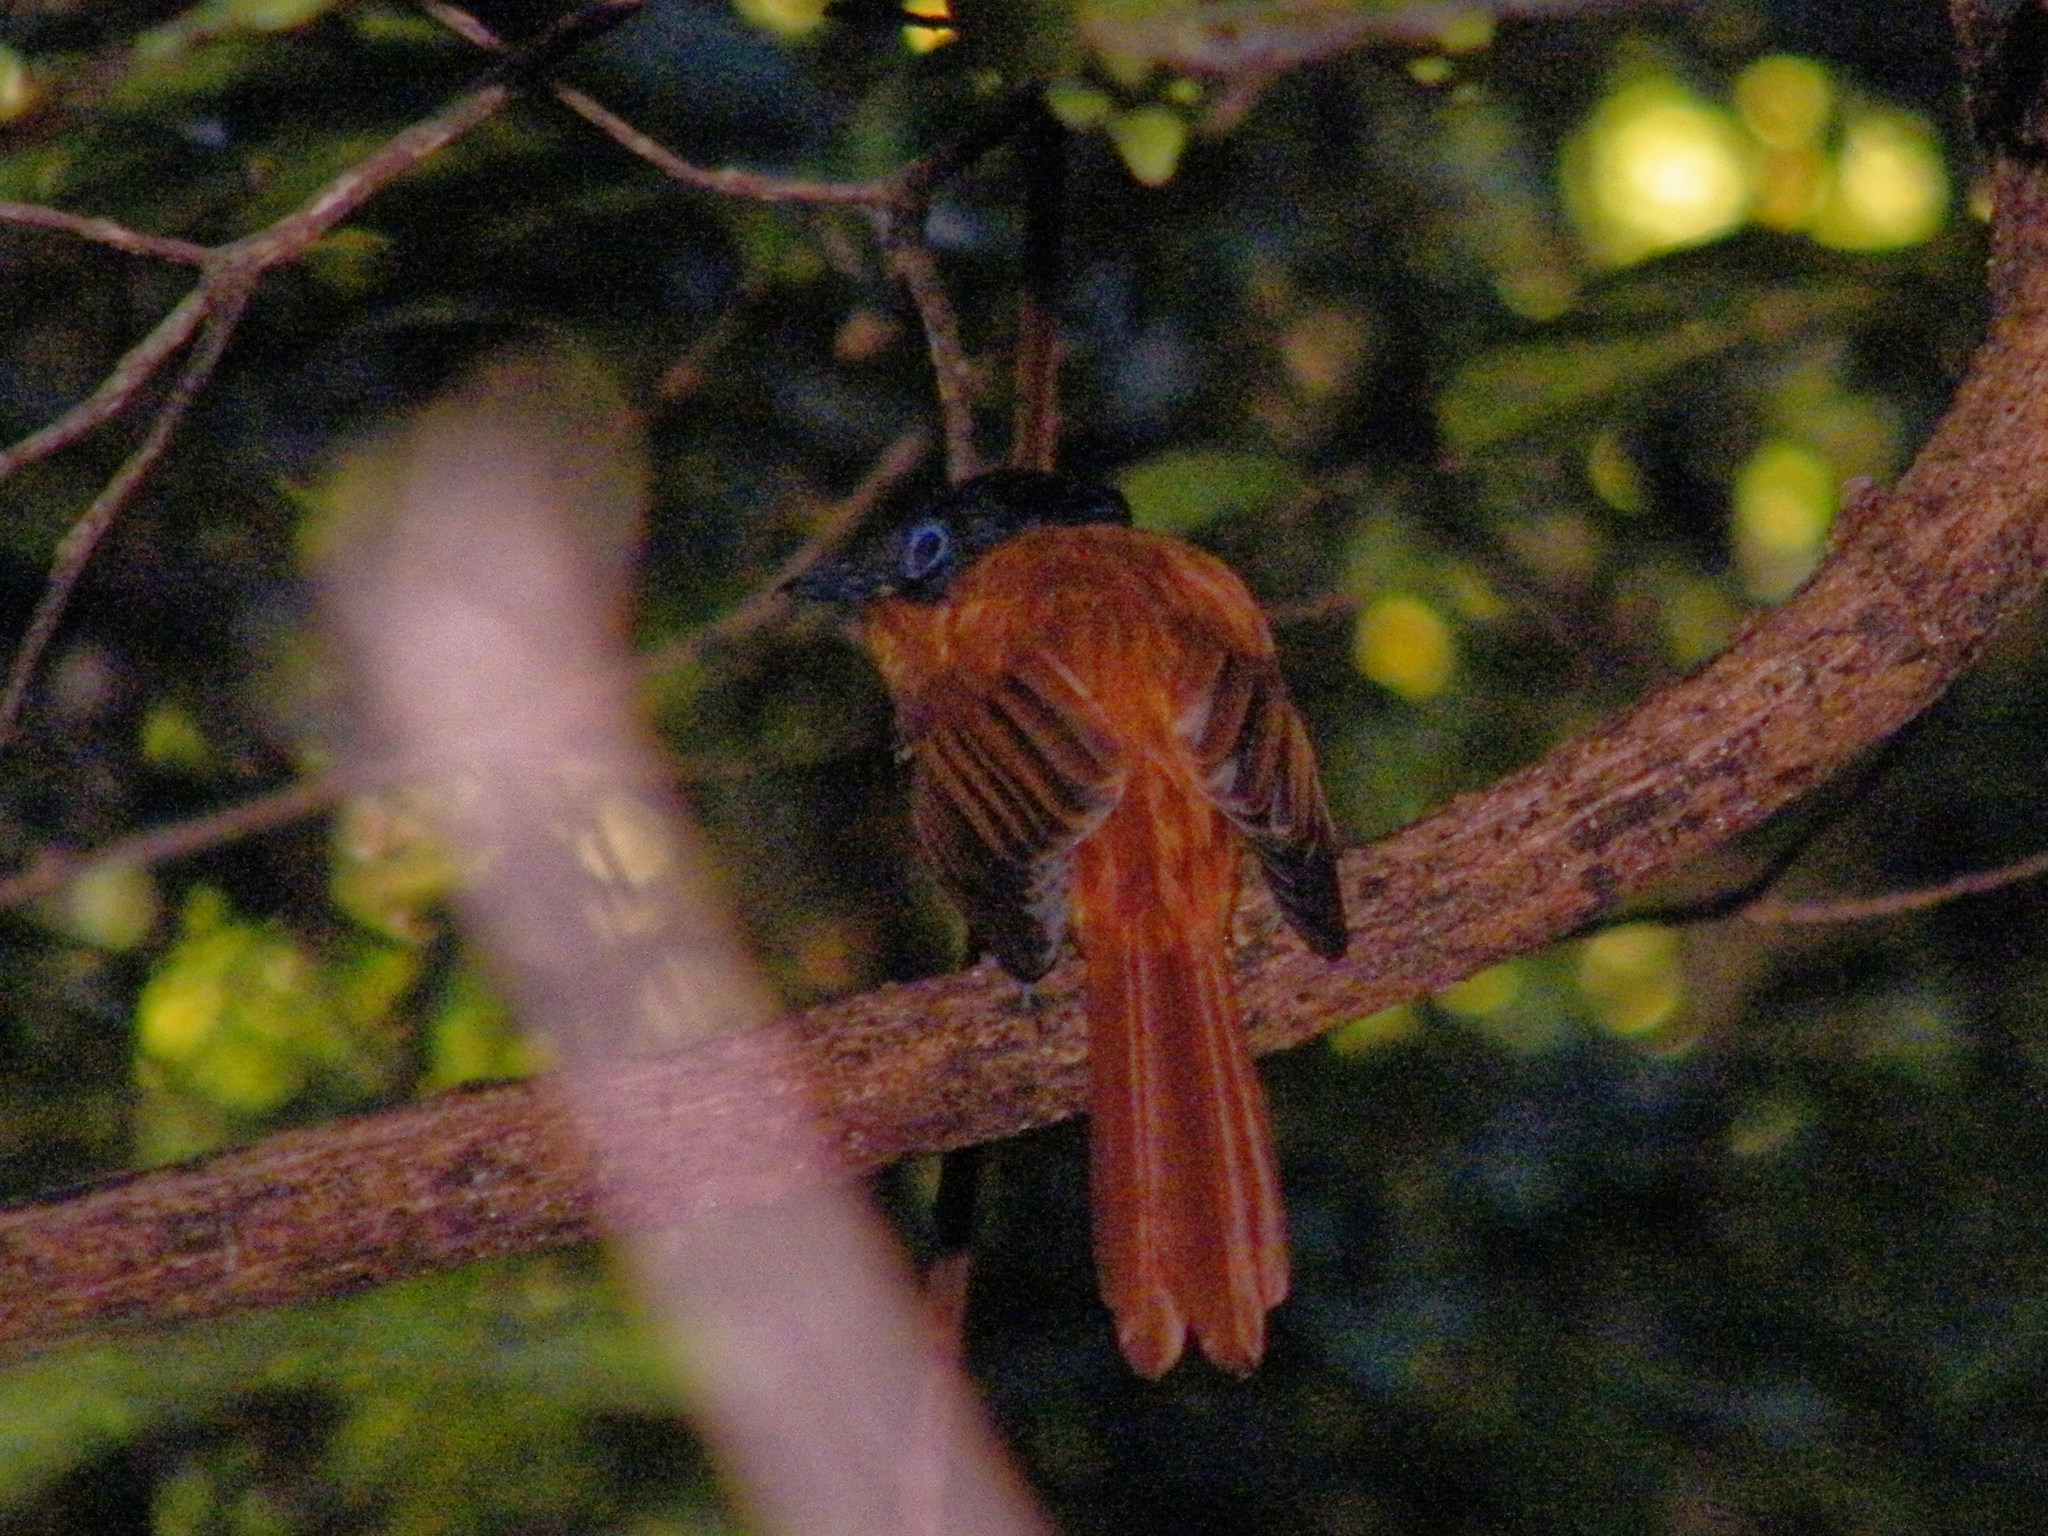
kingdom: Animalia
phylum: Chordata
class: Aves
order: Passeriformes
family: Monarchidae
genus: Terpsiphone
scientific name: Terpsiphone mutata
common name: Malagasy paradise flycatcher
